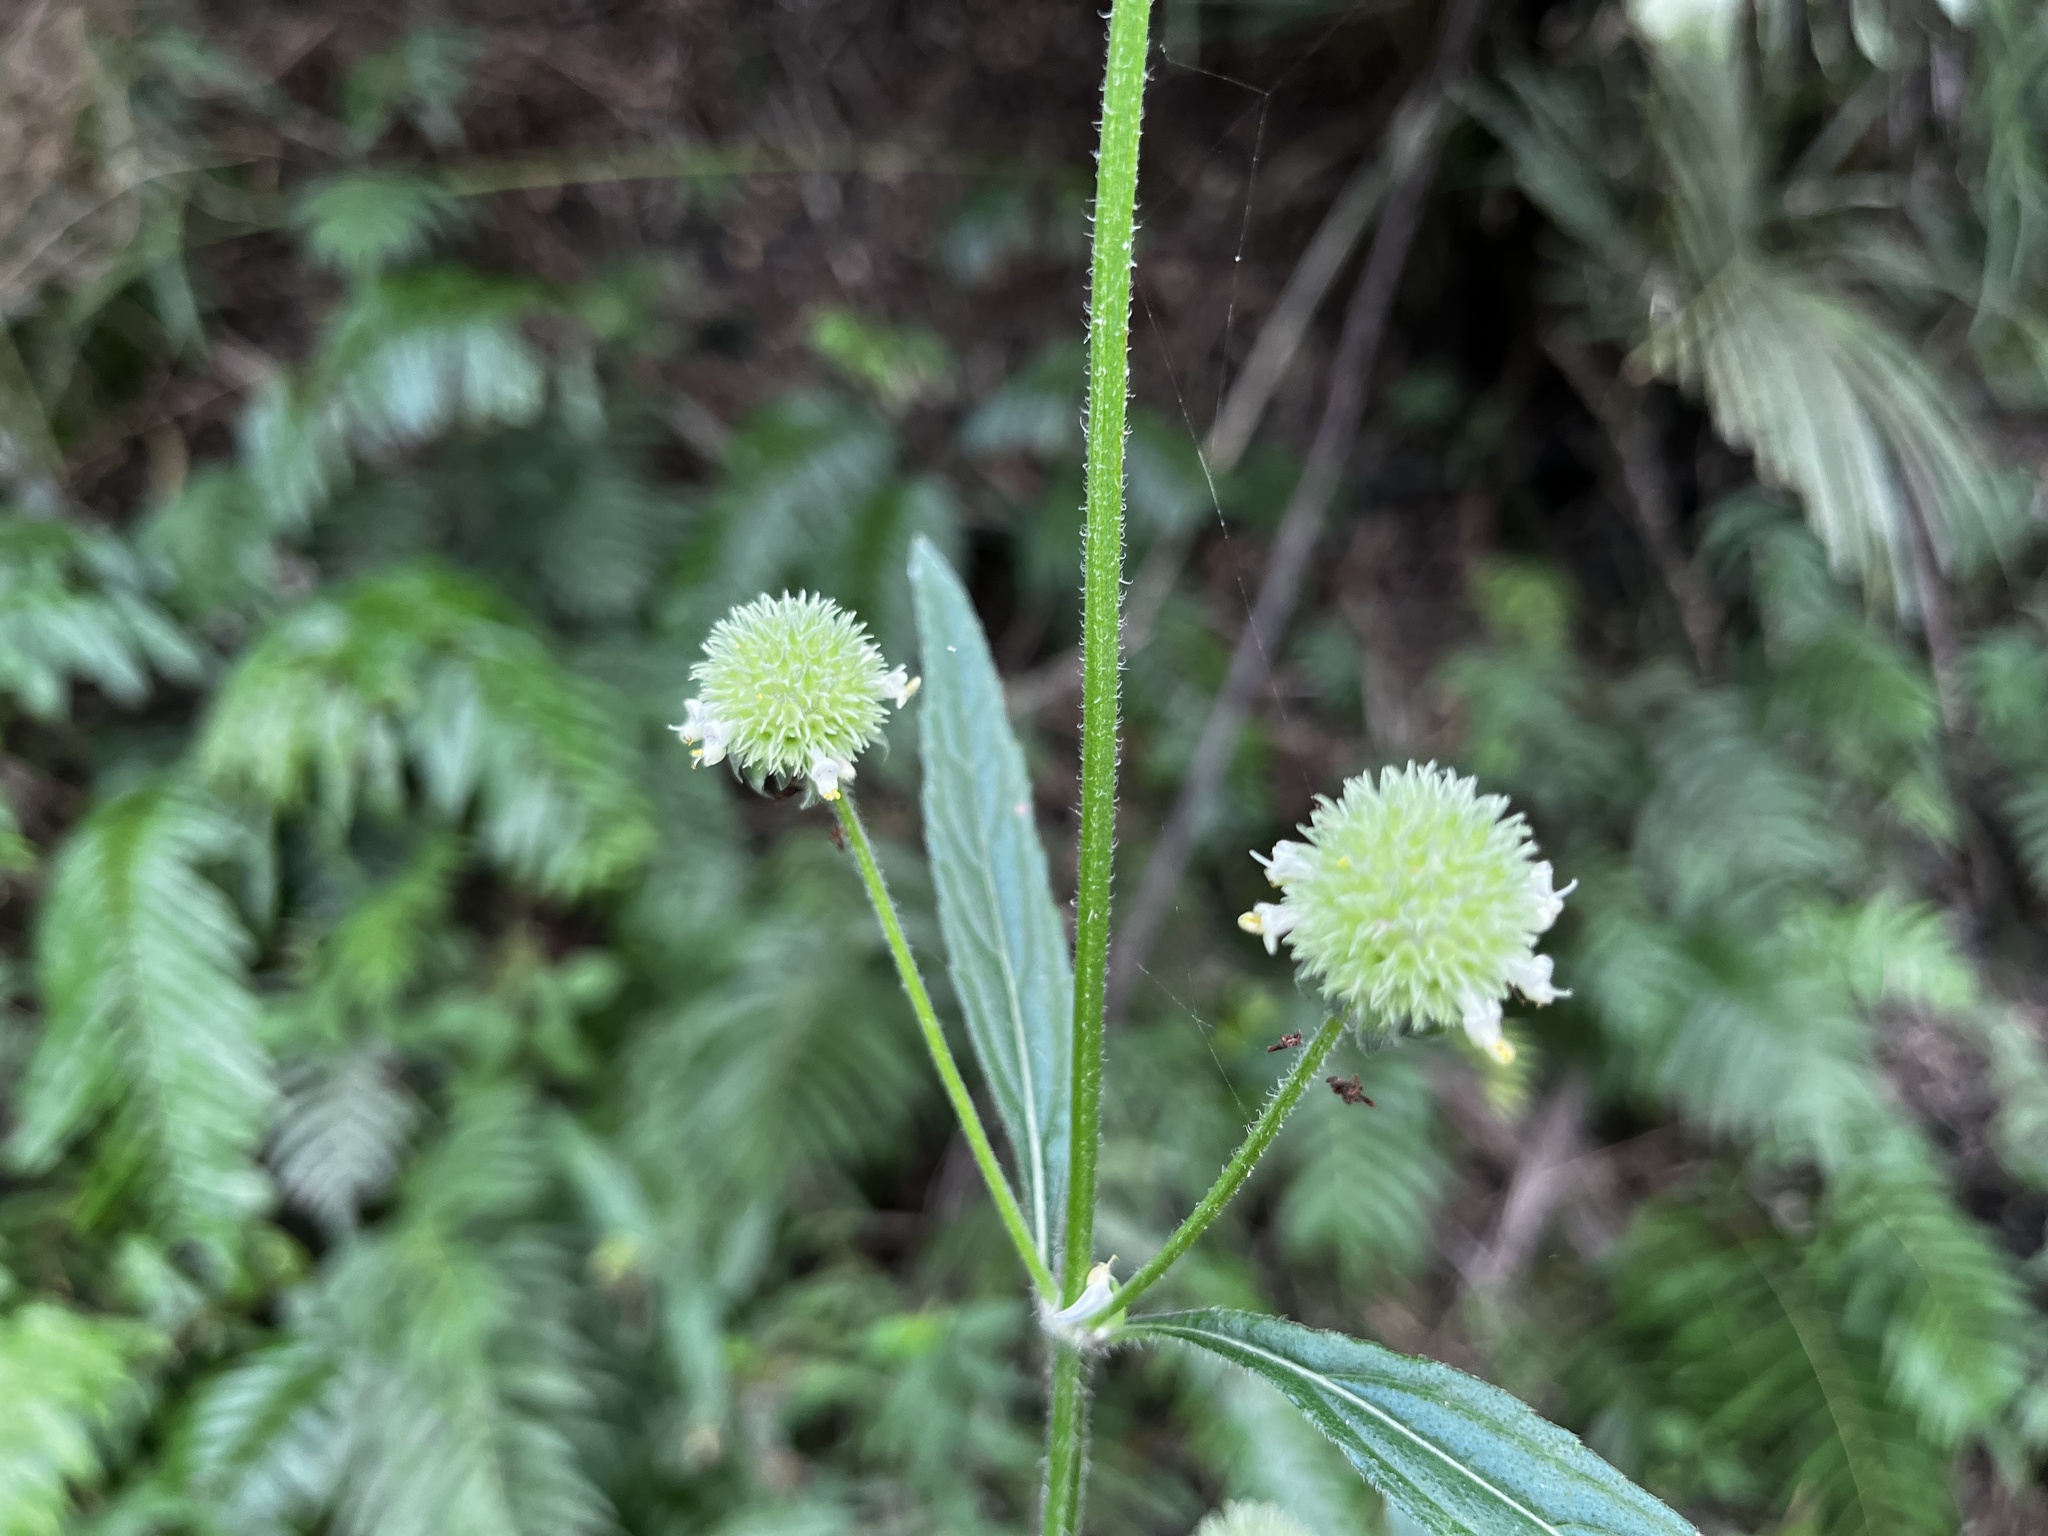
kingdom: Plantae
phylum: Tracheophyta
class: Magnoliopsida
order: Lamiales
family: Lamiaceae
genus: Hyptis
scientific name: Hyptis capitata
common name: False ironwort
